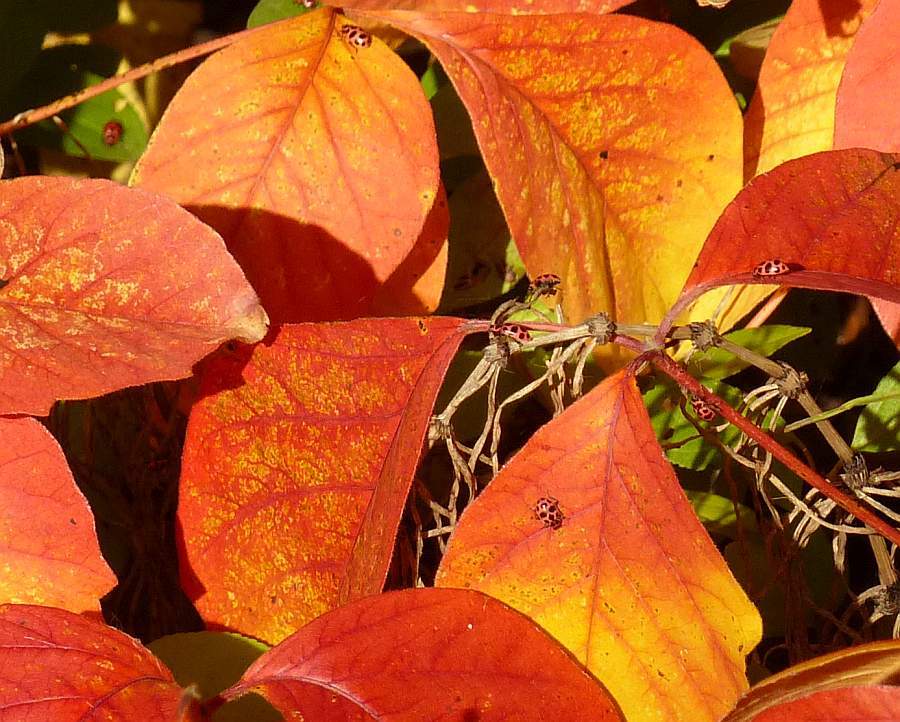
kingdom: Animalia
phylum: Arthropoda
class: Insecta
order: Coleoptera
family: Coccinellidae
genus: Coleomegilla
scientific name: Coleomegilla maculata
